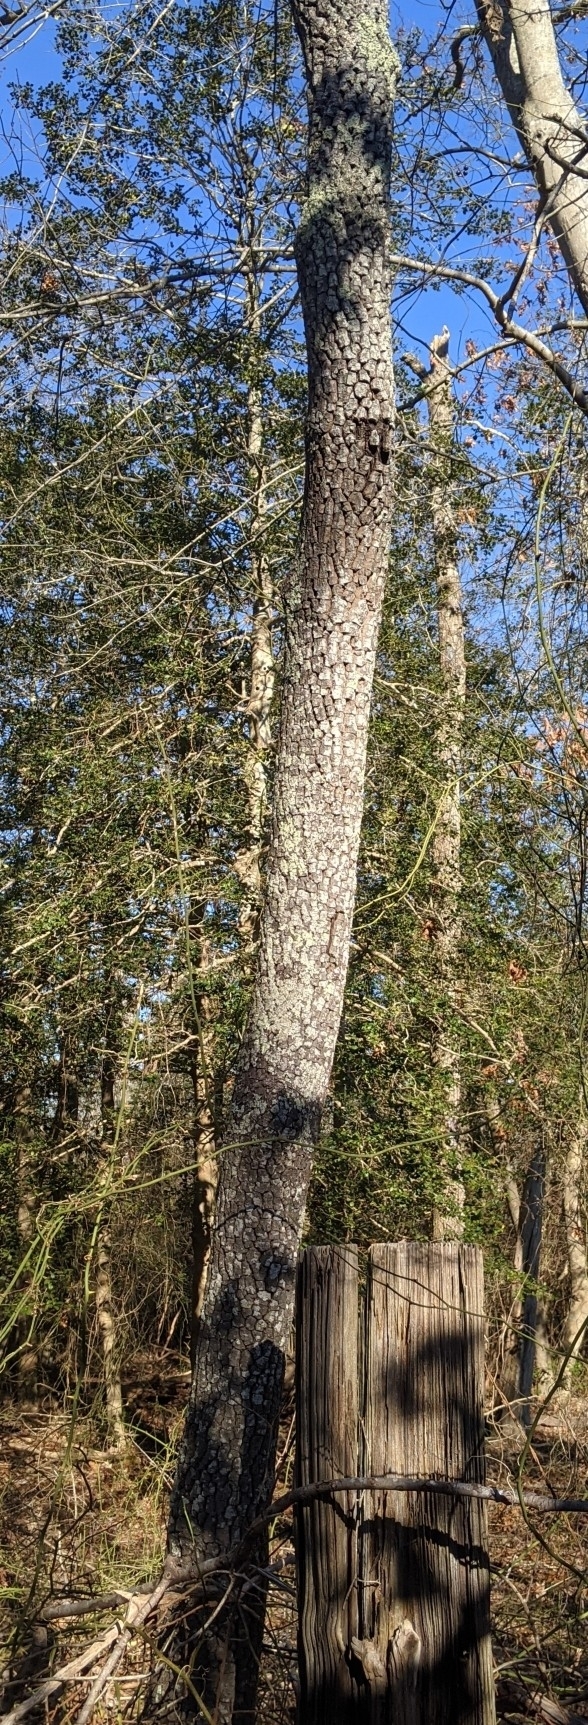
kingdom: Plantae
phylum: Tracheophyta
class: Magnoliopsida
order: Ericales
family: Ebenaceae
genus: Diospyros
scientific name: Diospyros virginiana
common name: Persimmon
